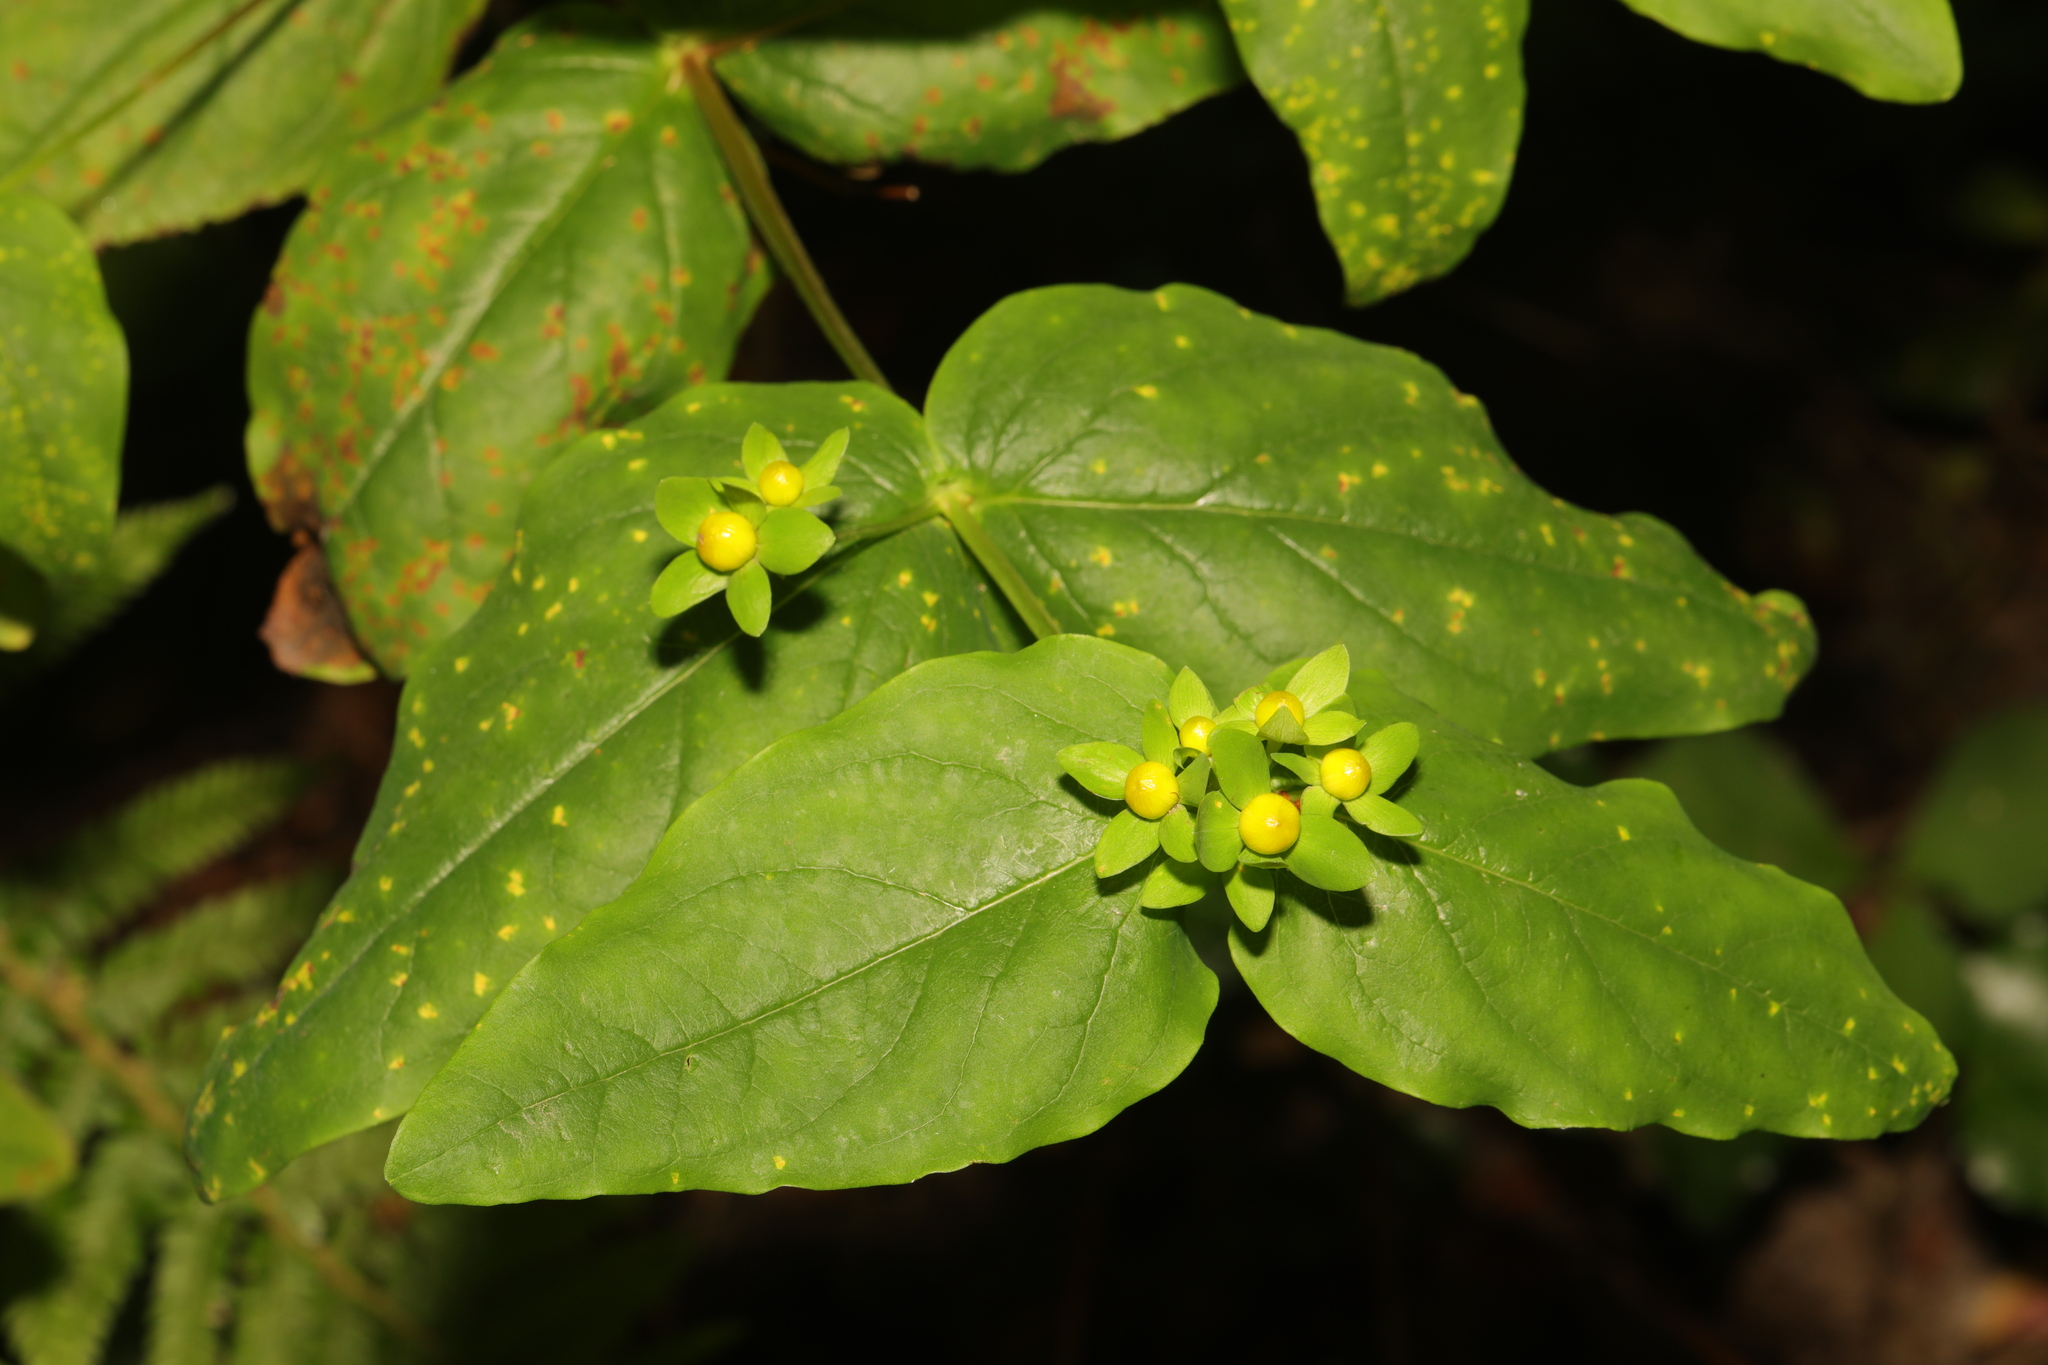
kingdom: Plantae
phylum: Tracheophyta
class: Magnoliopsida
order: Malpighiales
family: Hypericaceae
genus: Hypericum
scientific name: Hypericum androsaemum
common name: Sweet-amber
